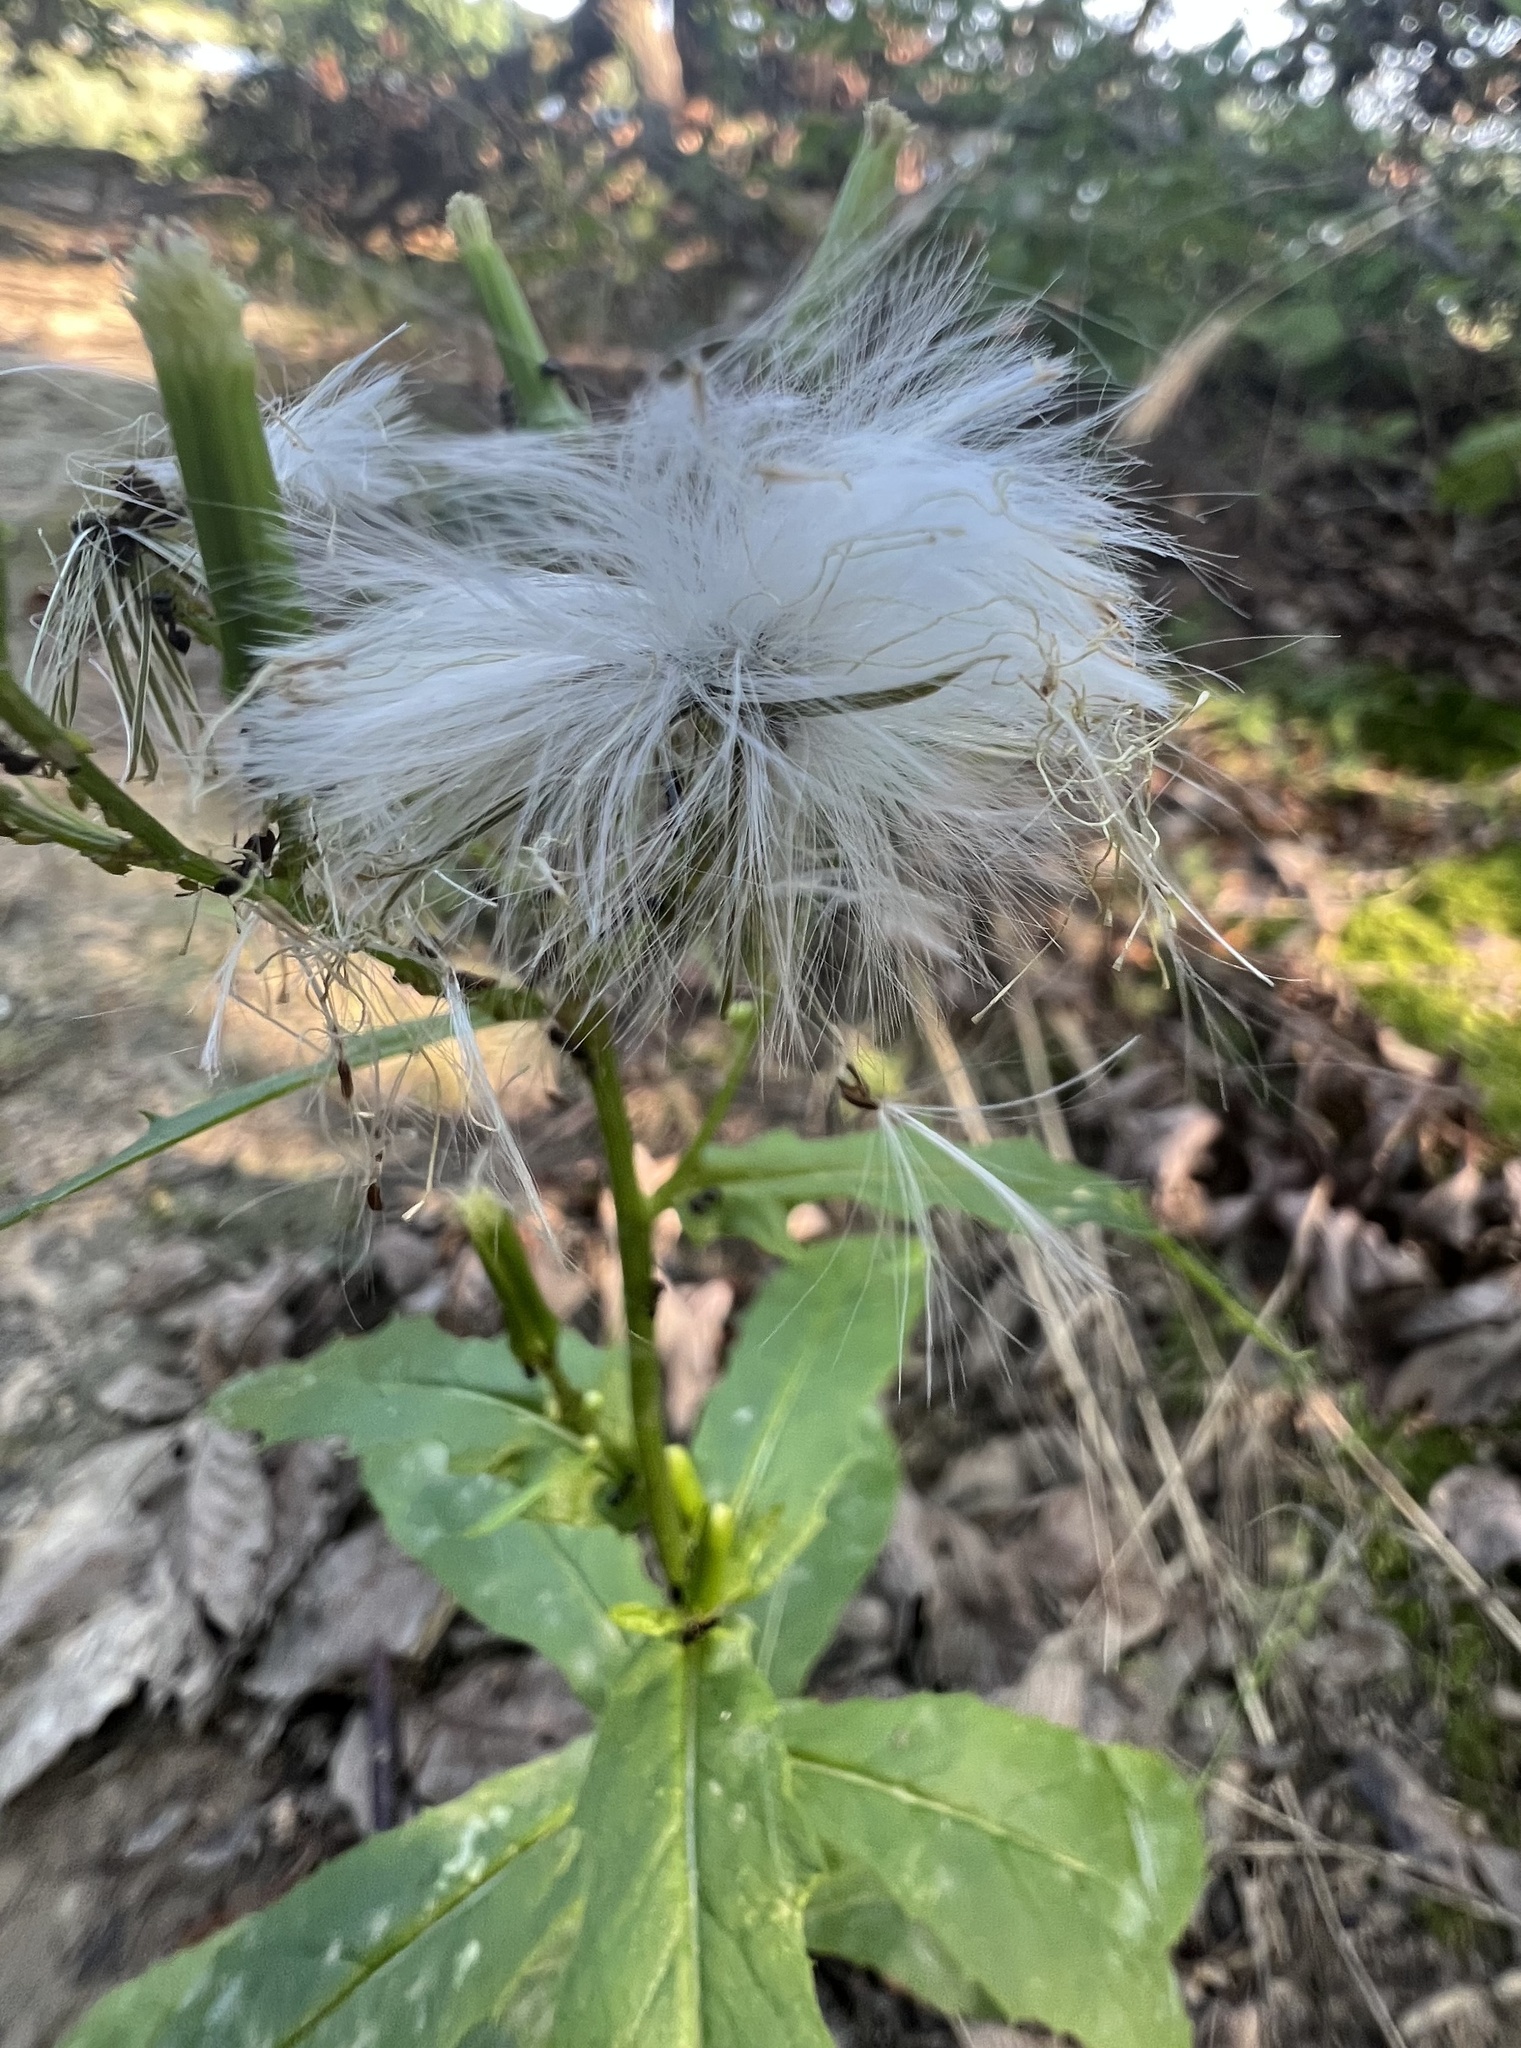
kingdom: Plantae
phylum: Tracheophyta
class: Magnoliopsida
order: Asterales
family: Asteraceae
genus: Erechtites
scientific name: Erechtites hieraciifolius
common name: American burnweed
